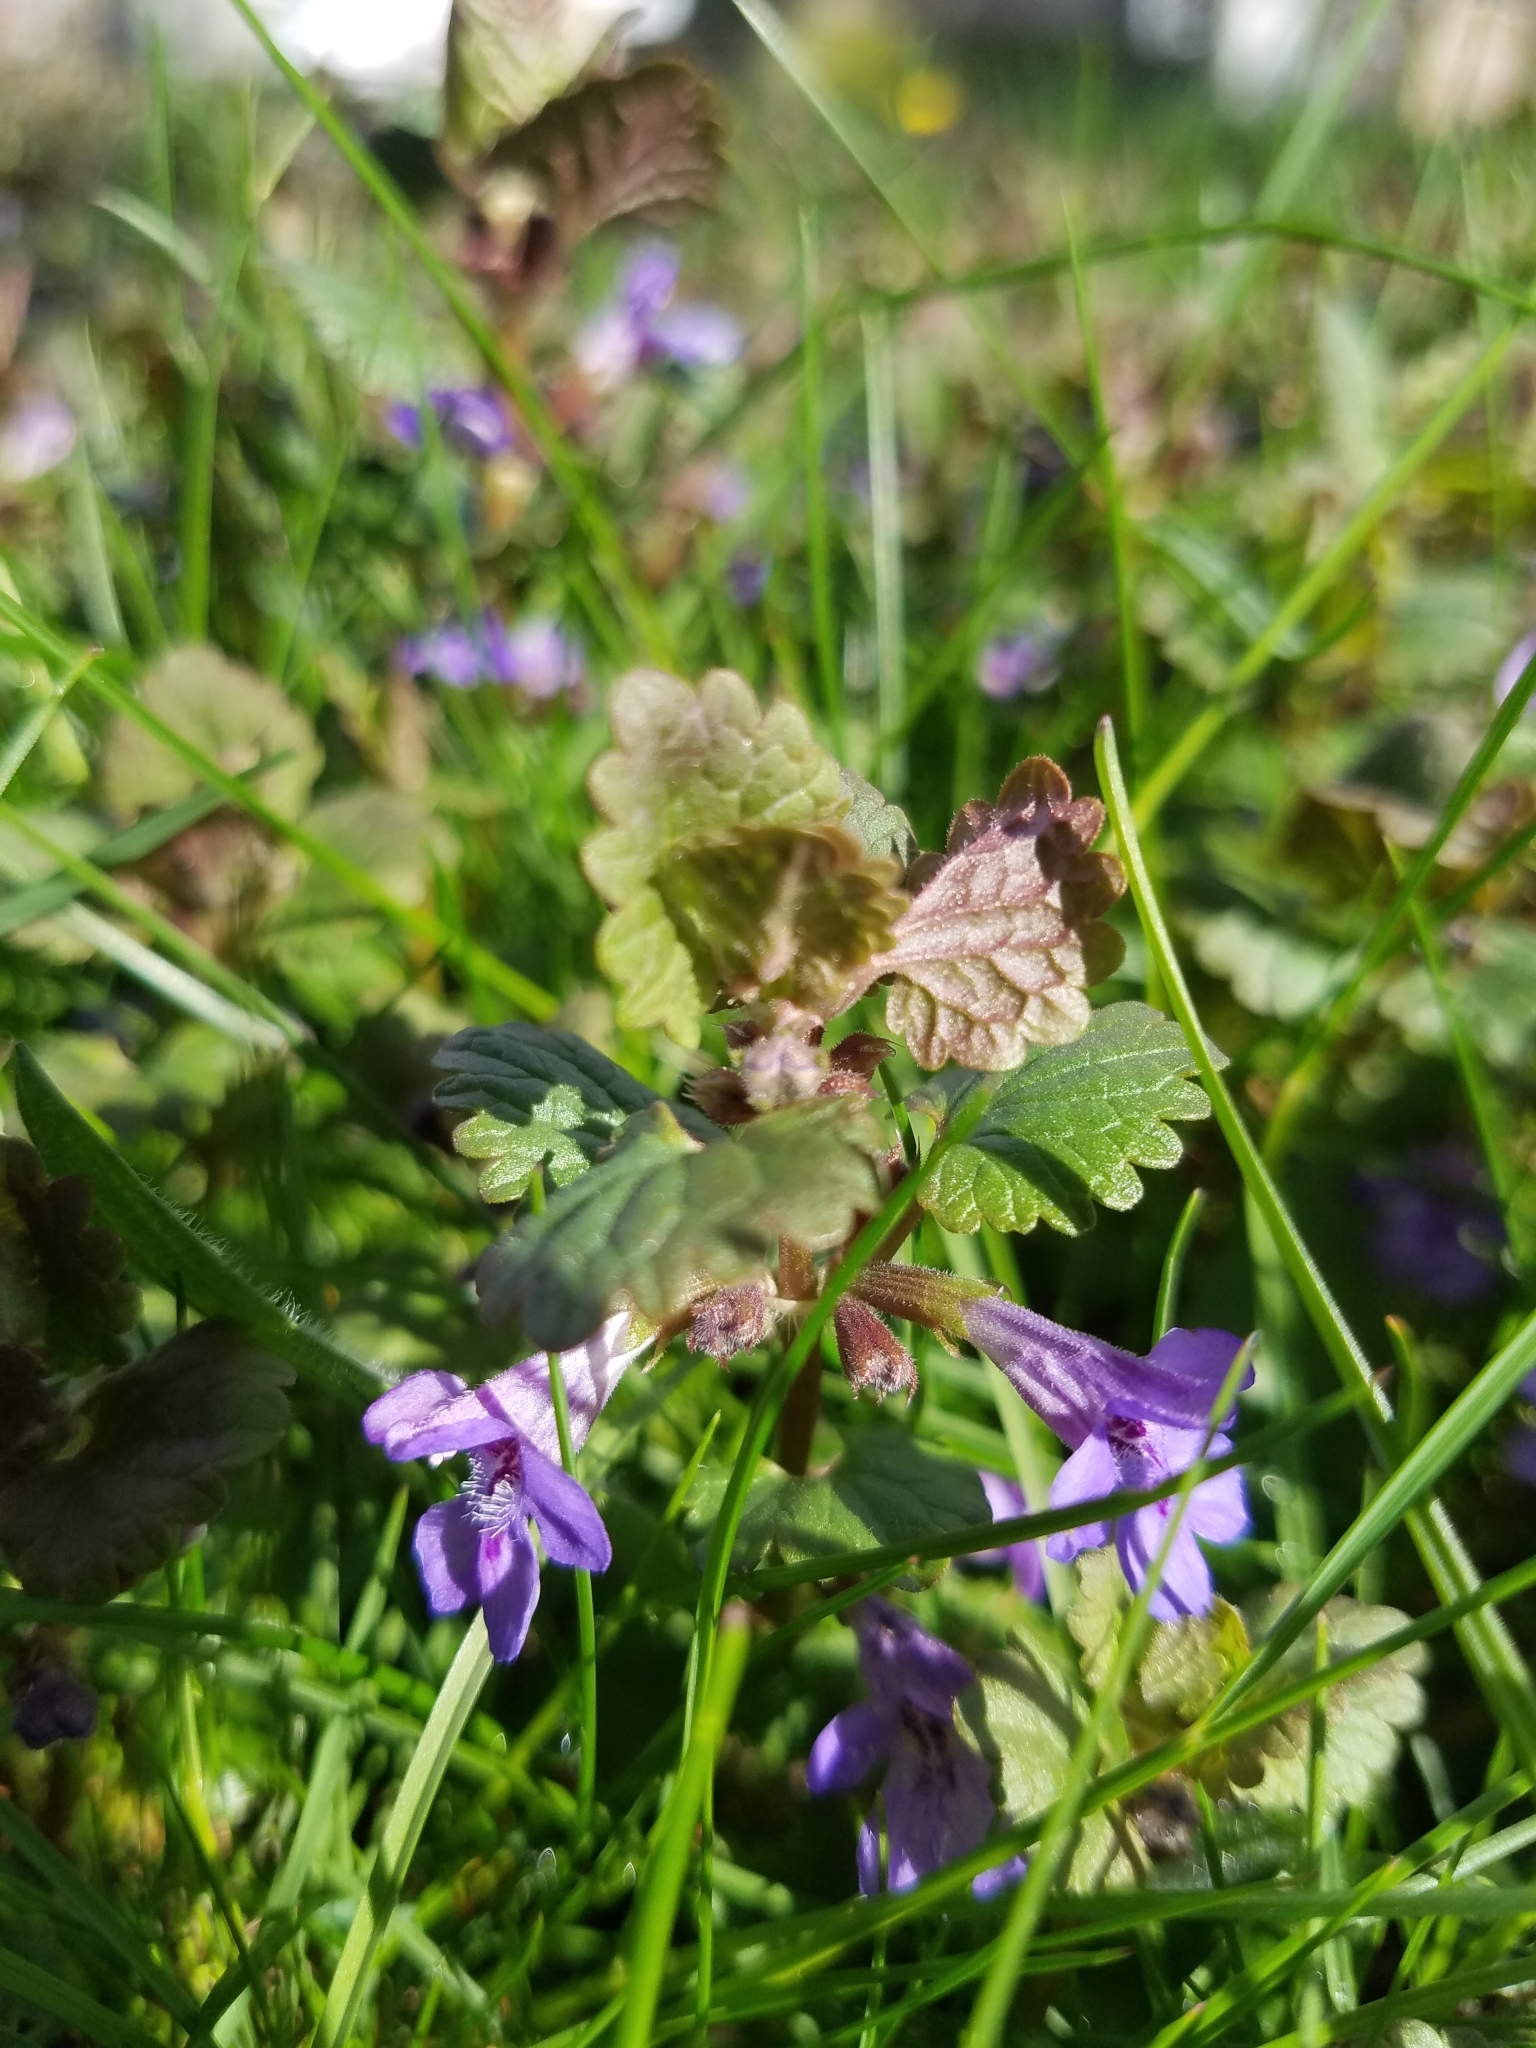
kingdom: Plantae
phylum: Tracheophyta
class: Magnoliopsida
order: Lamiales
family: Lamiaceae
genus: Glechoma
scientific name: Glechoma hederacea
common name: Ground ivy
